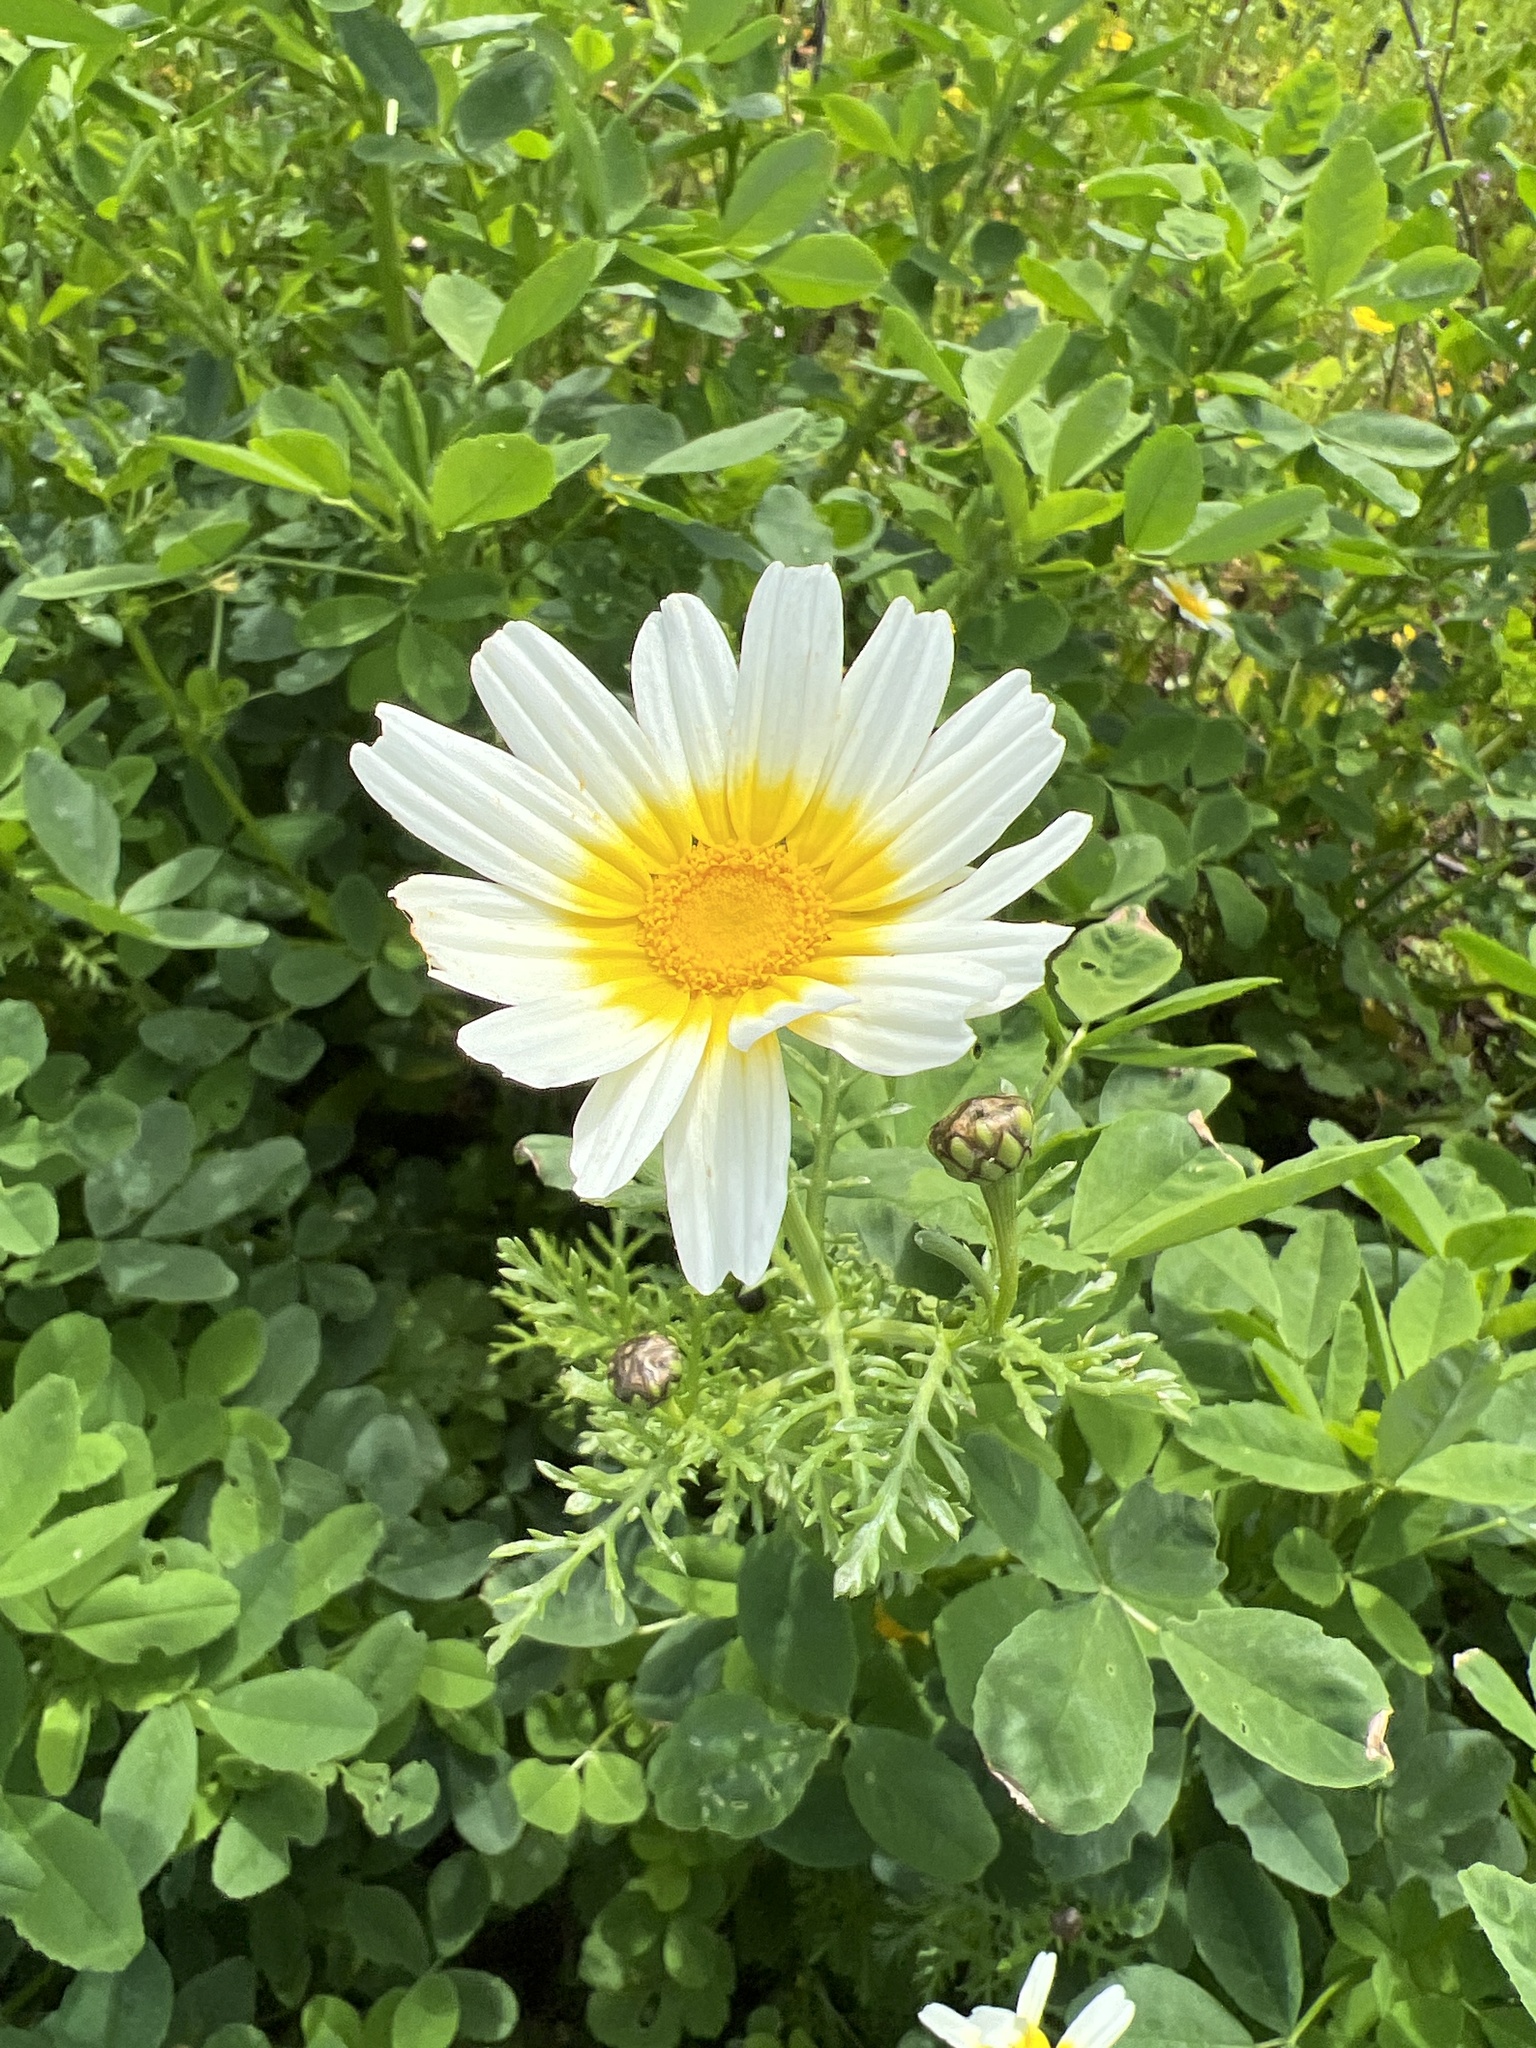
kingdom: Plantae
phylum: Tracheophyta
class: Magnoliopsida
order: Asterales
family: Asteraceae
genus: Glebionis
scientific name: Glebionis coronaria
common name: Crowndaisy
